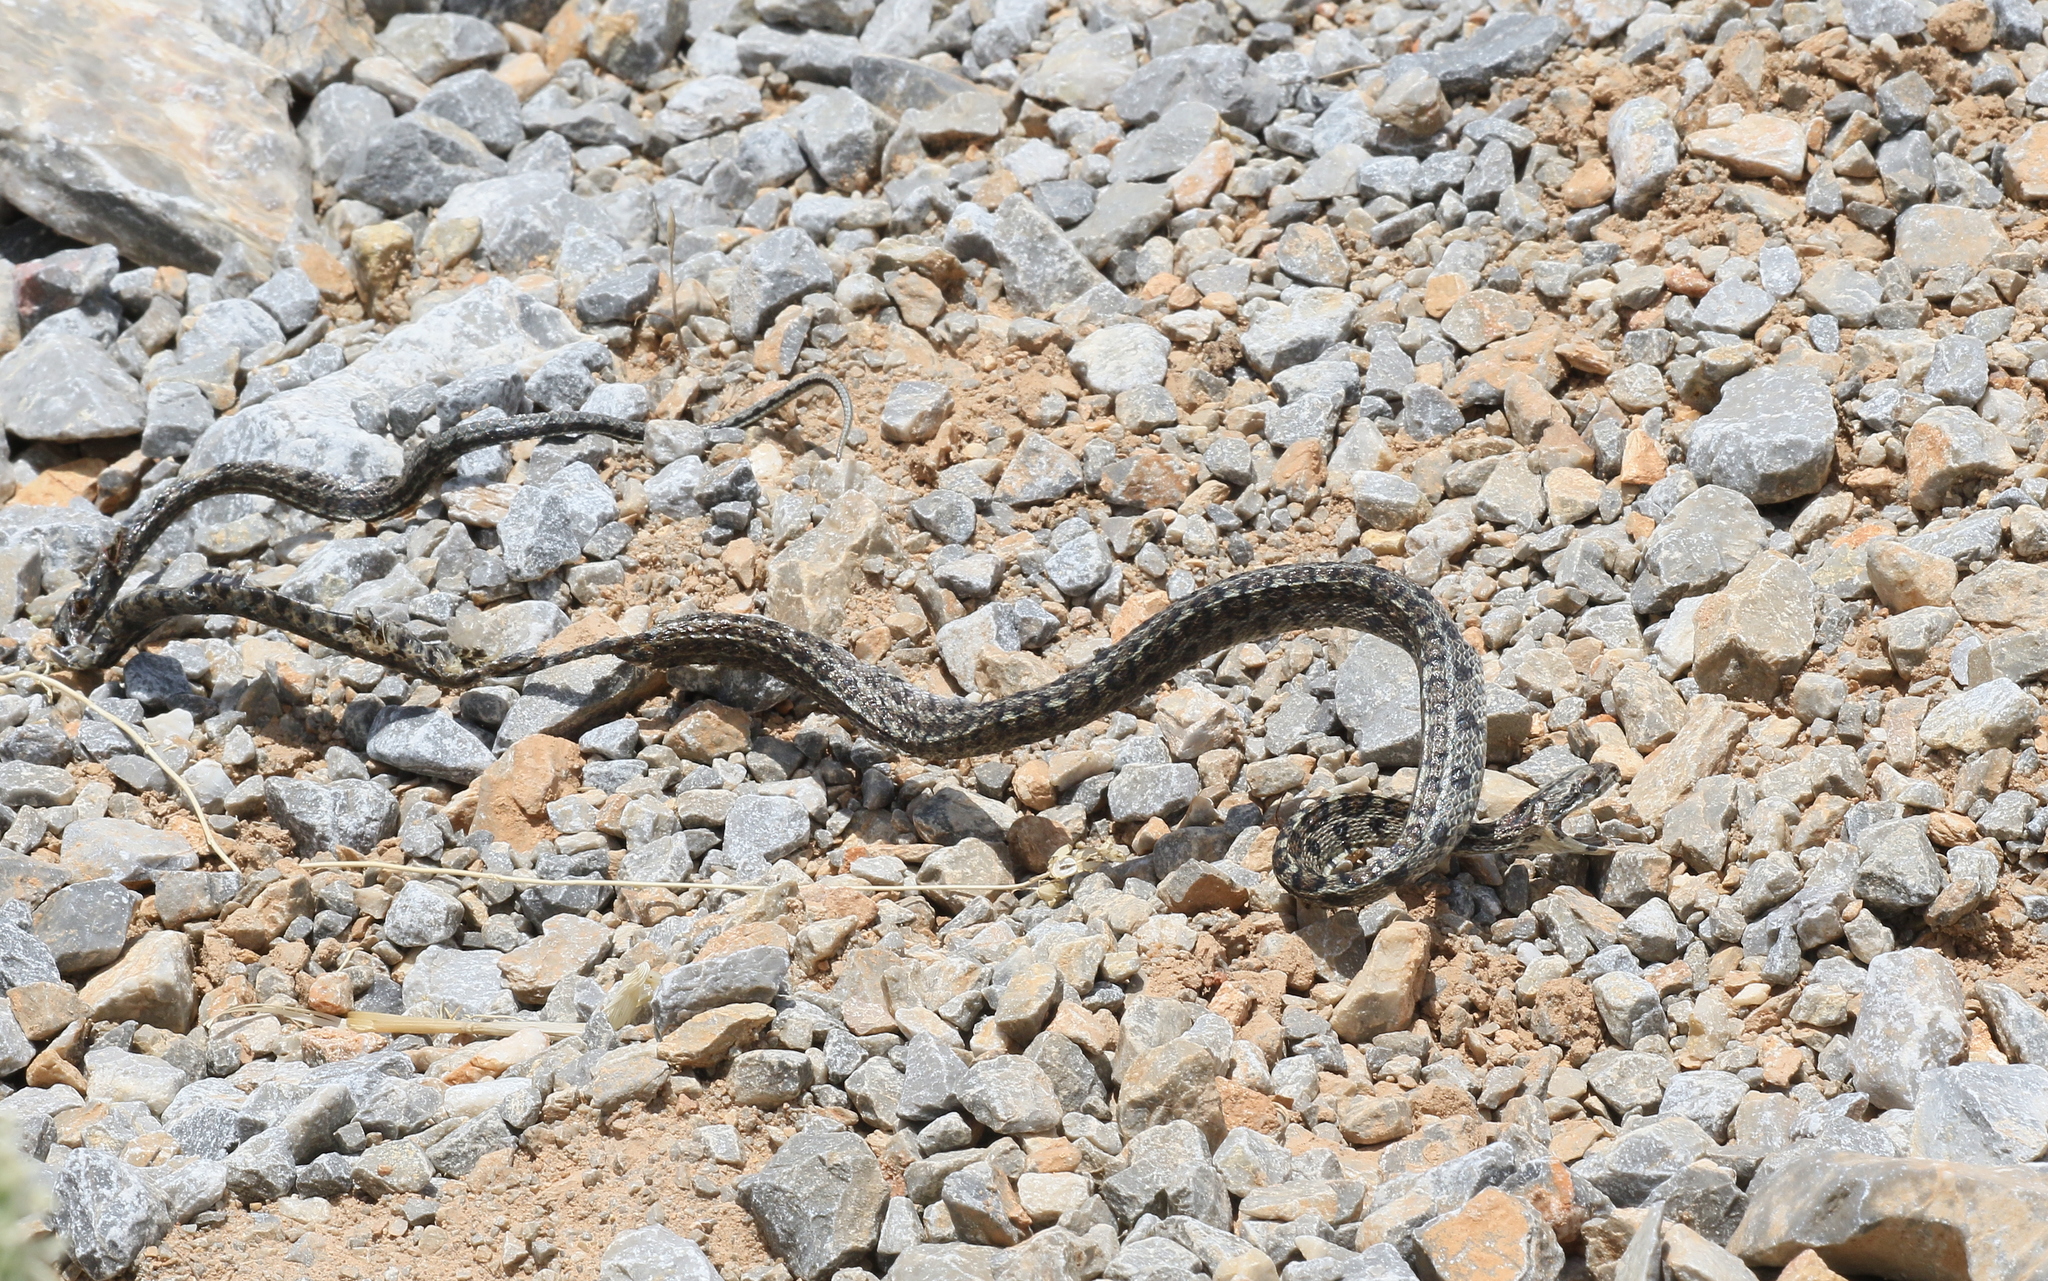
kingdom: Animalia
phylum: Chordata
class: Squamata
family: Colubridae
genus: Zamenis
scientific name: Zamenis situla
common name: European ratsnake
